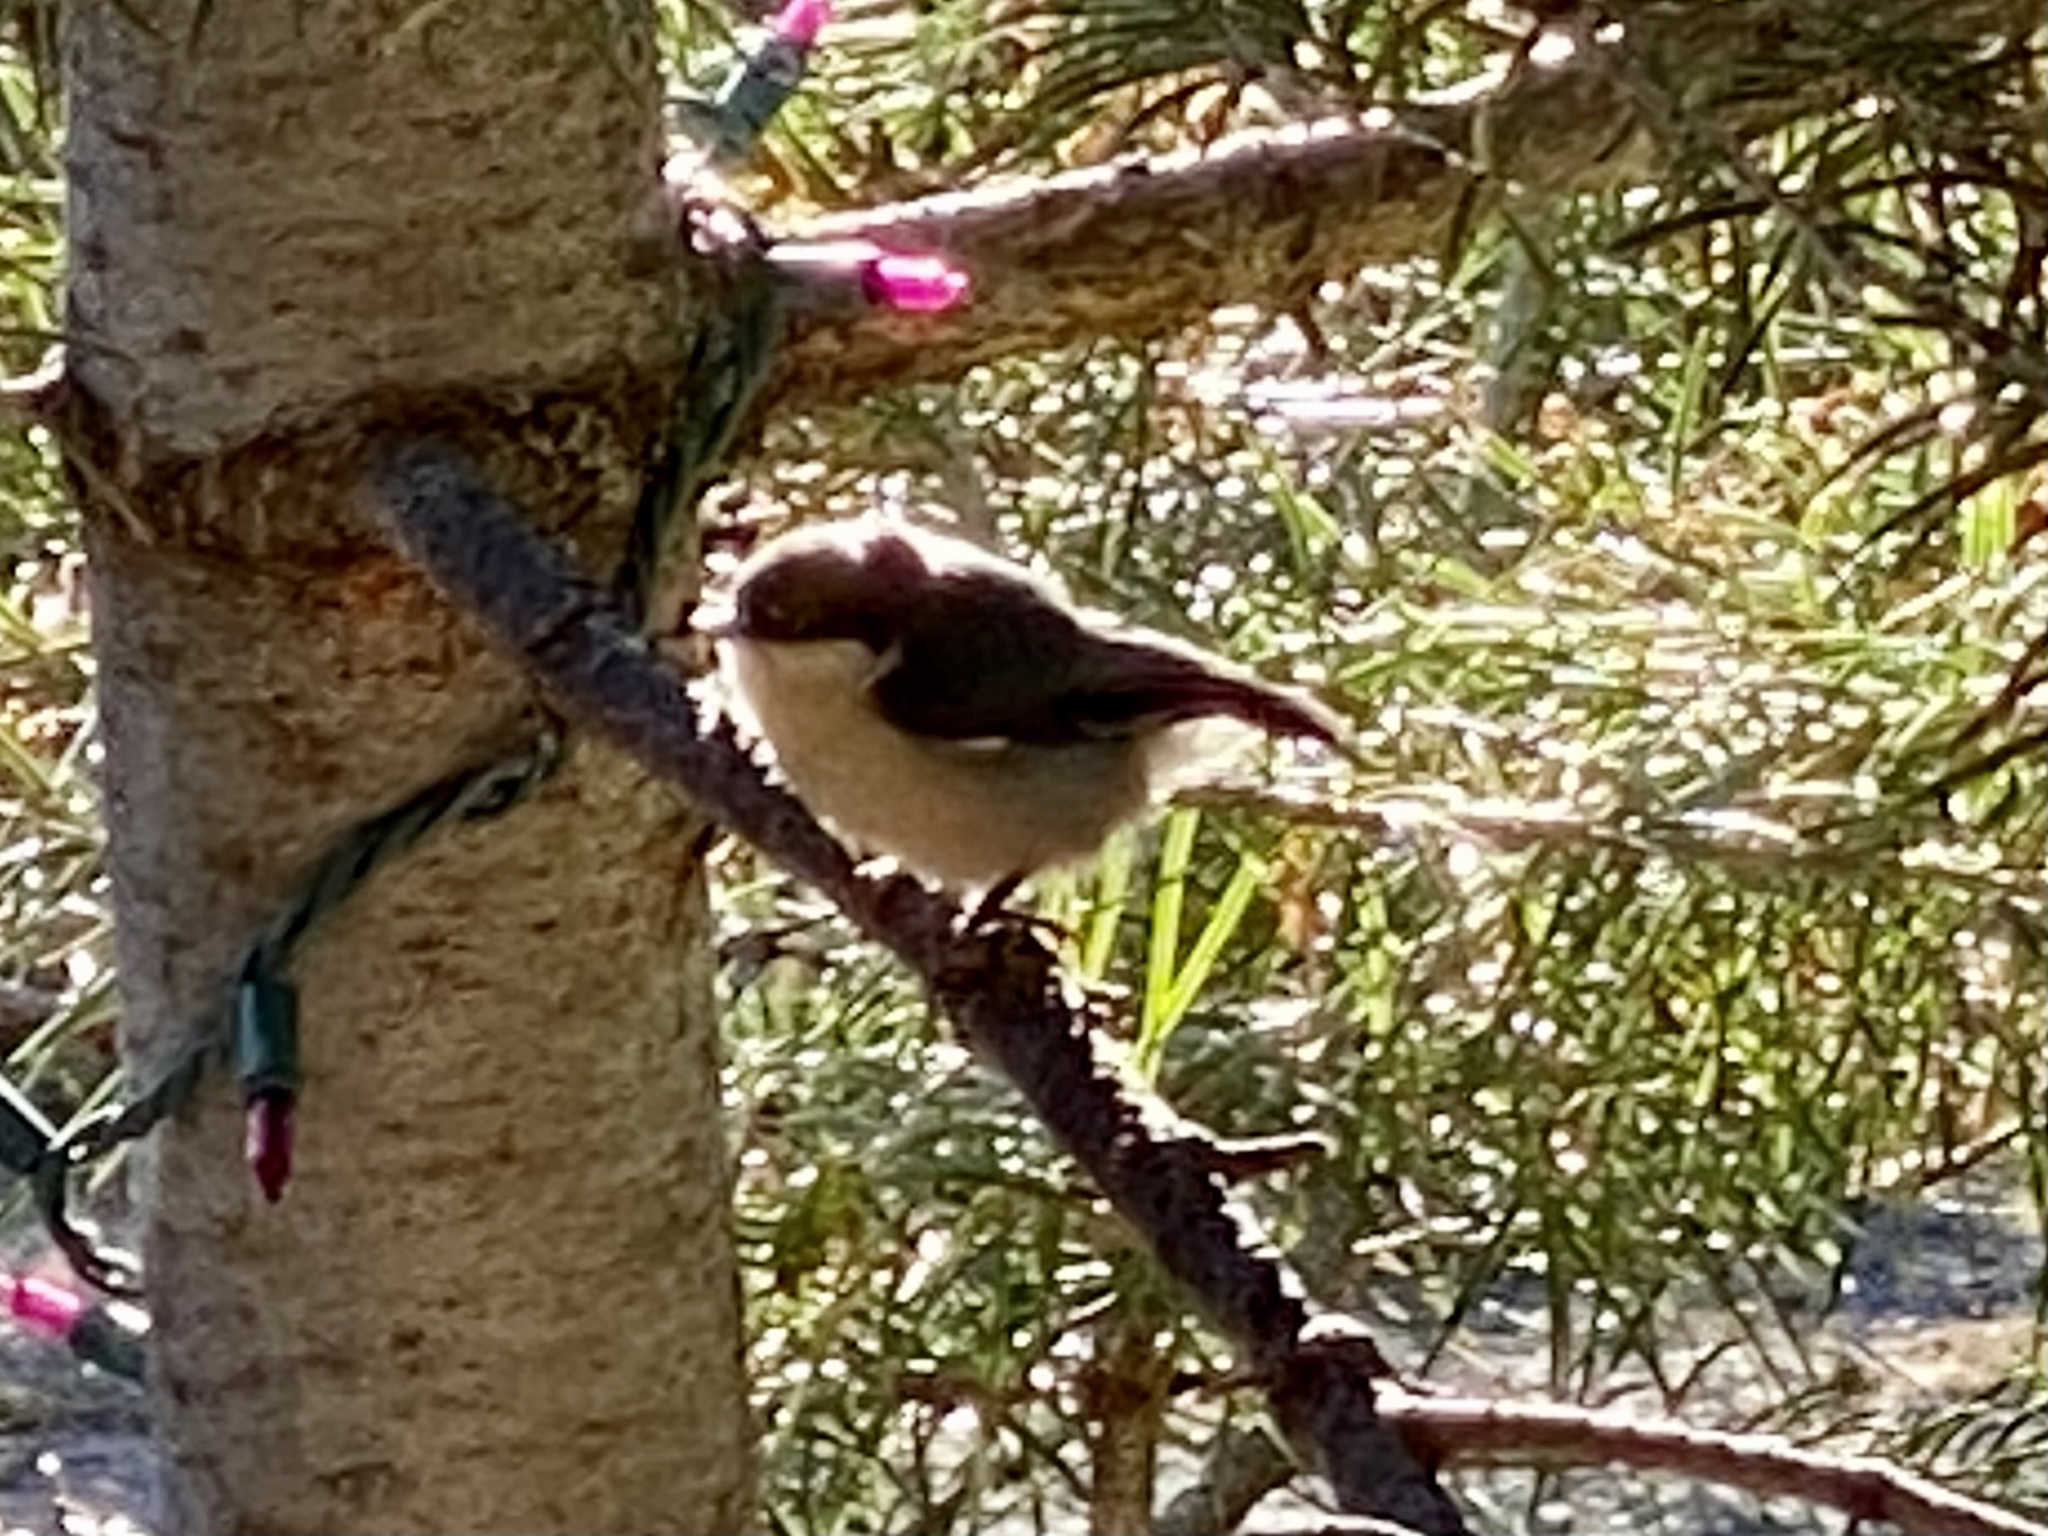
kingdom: Animalia
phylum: Chordata
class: Aves
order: Passeriformes
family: Sittidae
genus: Sitta
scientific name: Sitta pygmaea
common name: Pygmy nuthatch
